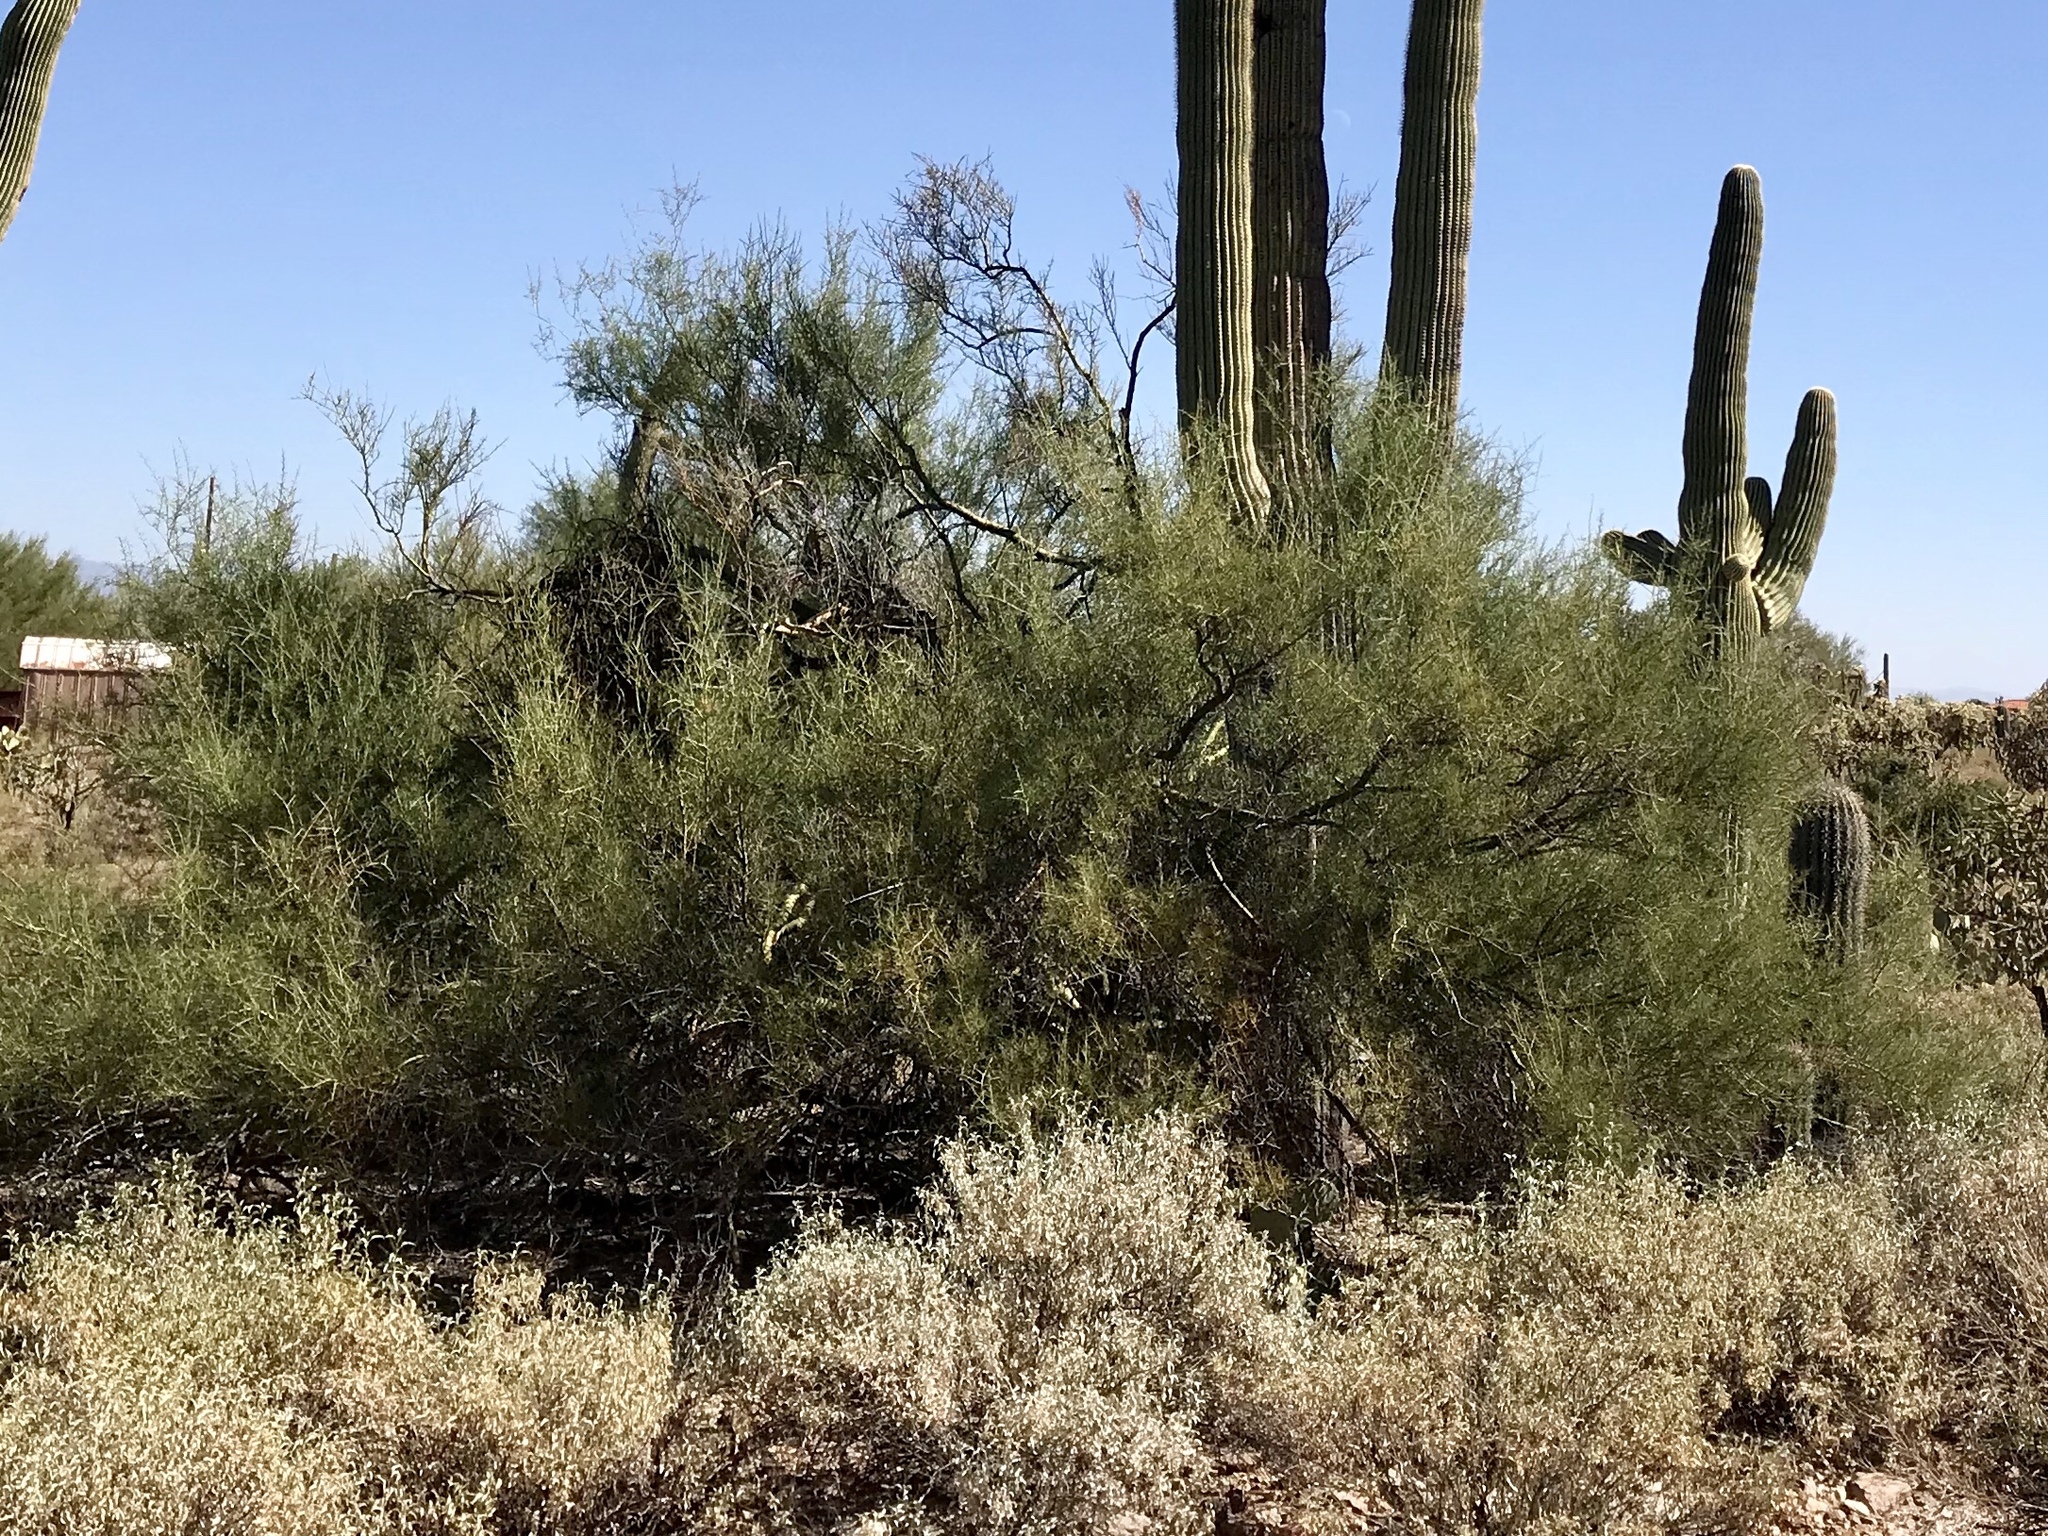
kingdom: Plantae
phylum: Tracheophyta
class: Magnoliopsida
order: Fabales
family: Fabaceae
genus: Parkinsonia
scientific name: Parkinsonia microphylla
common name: Yellow paloverde
